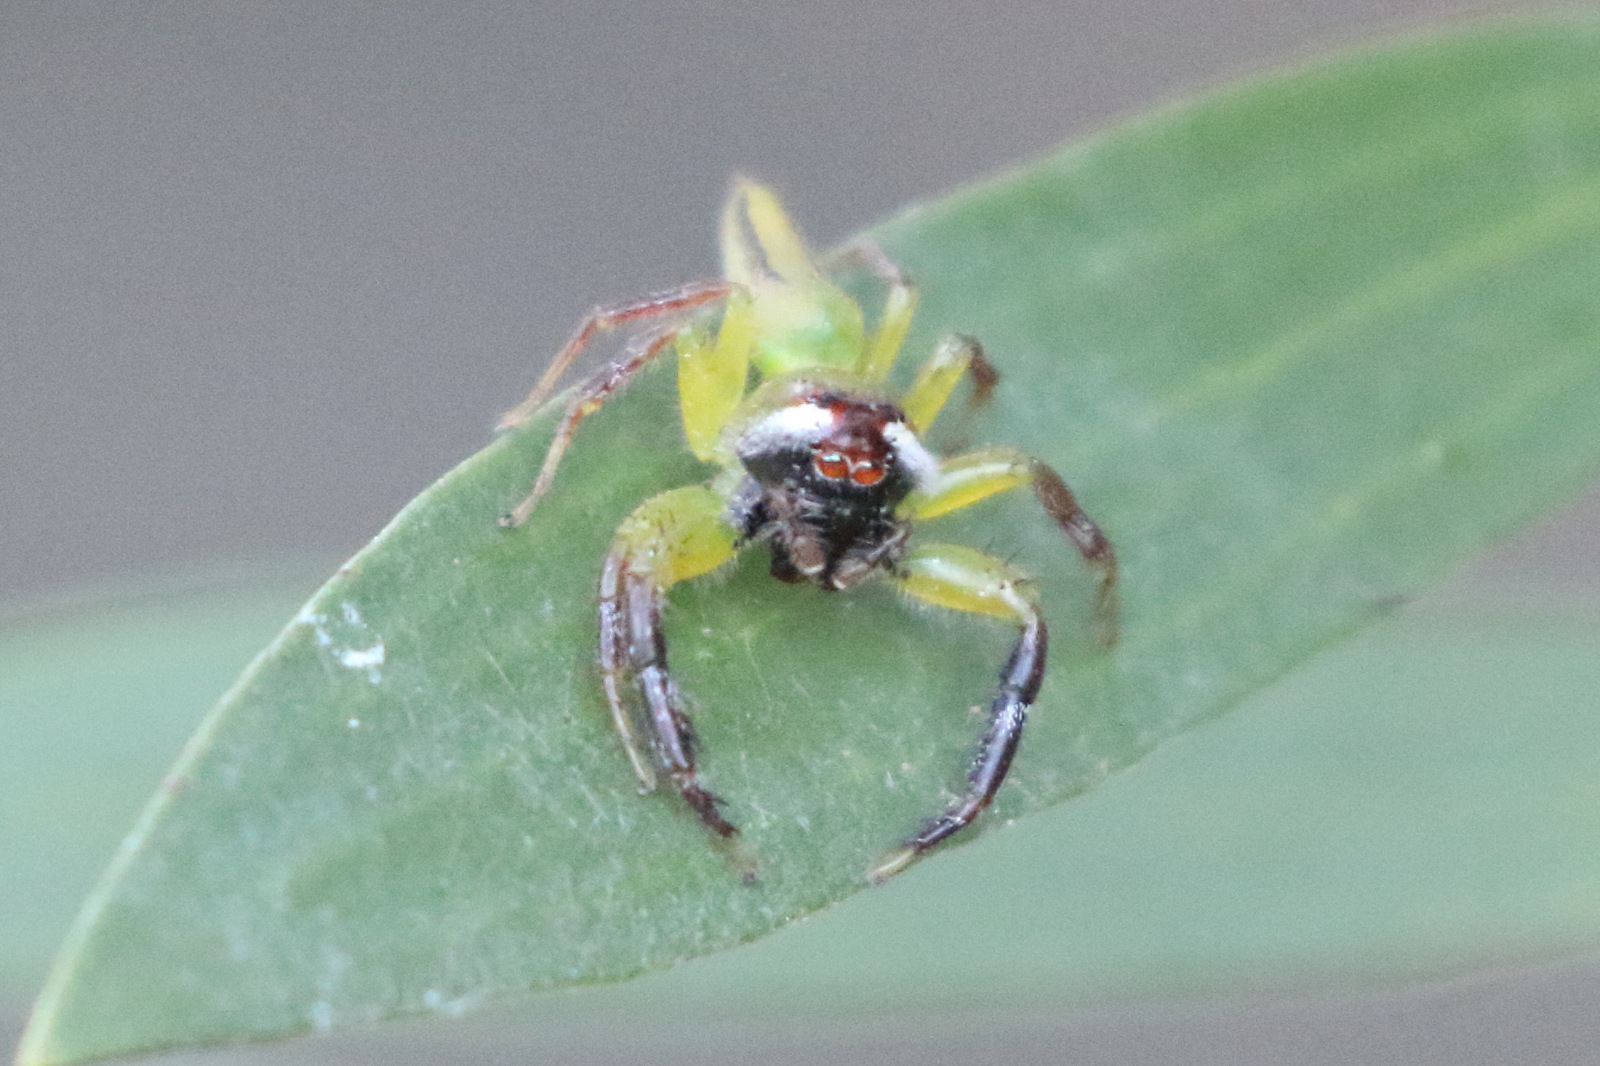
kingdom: Animalia
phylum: Arthropoda
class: Arachnida
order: Araneae
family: Salticidae
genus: Mopsus
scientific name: Mopsus mormon
